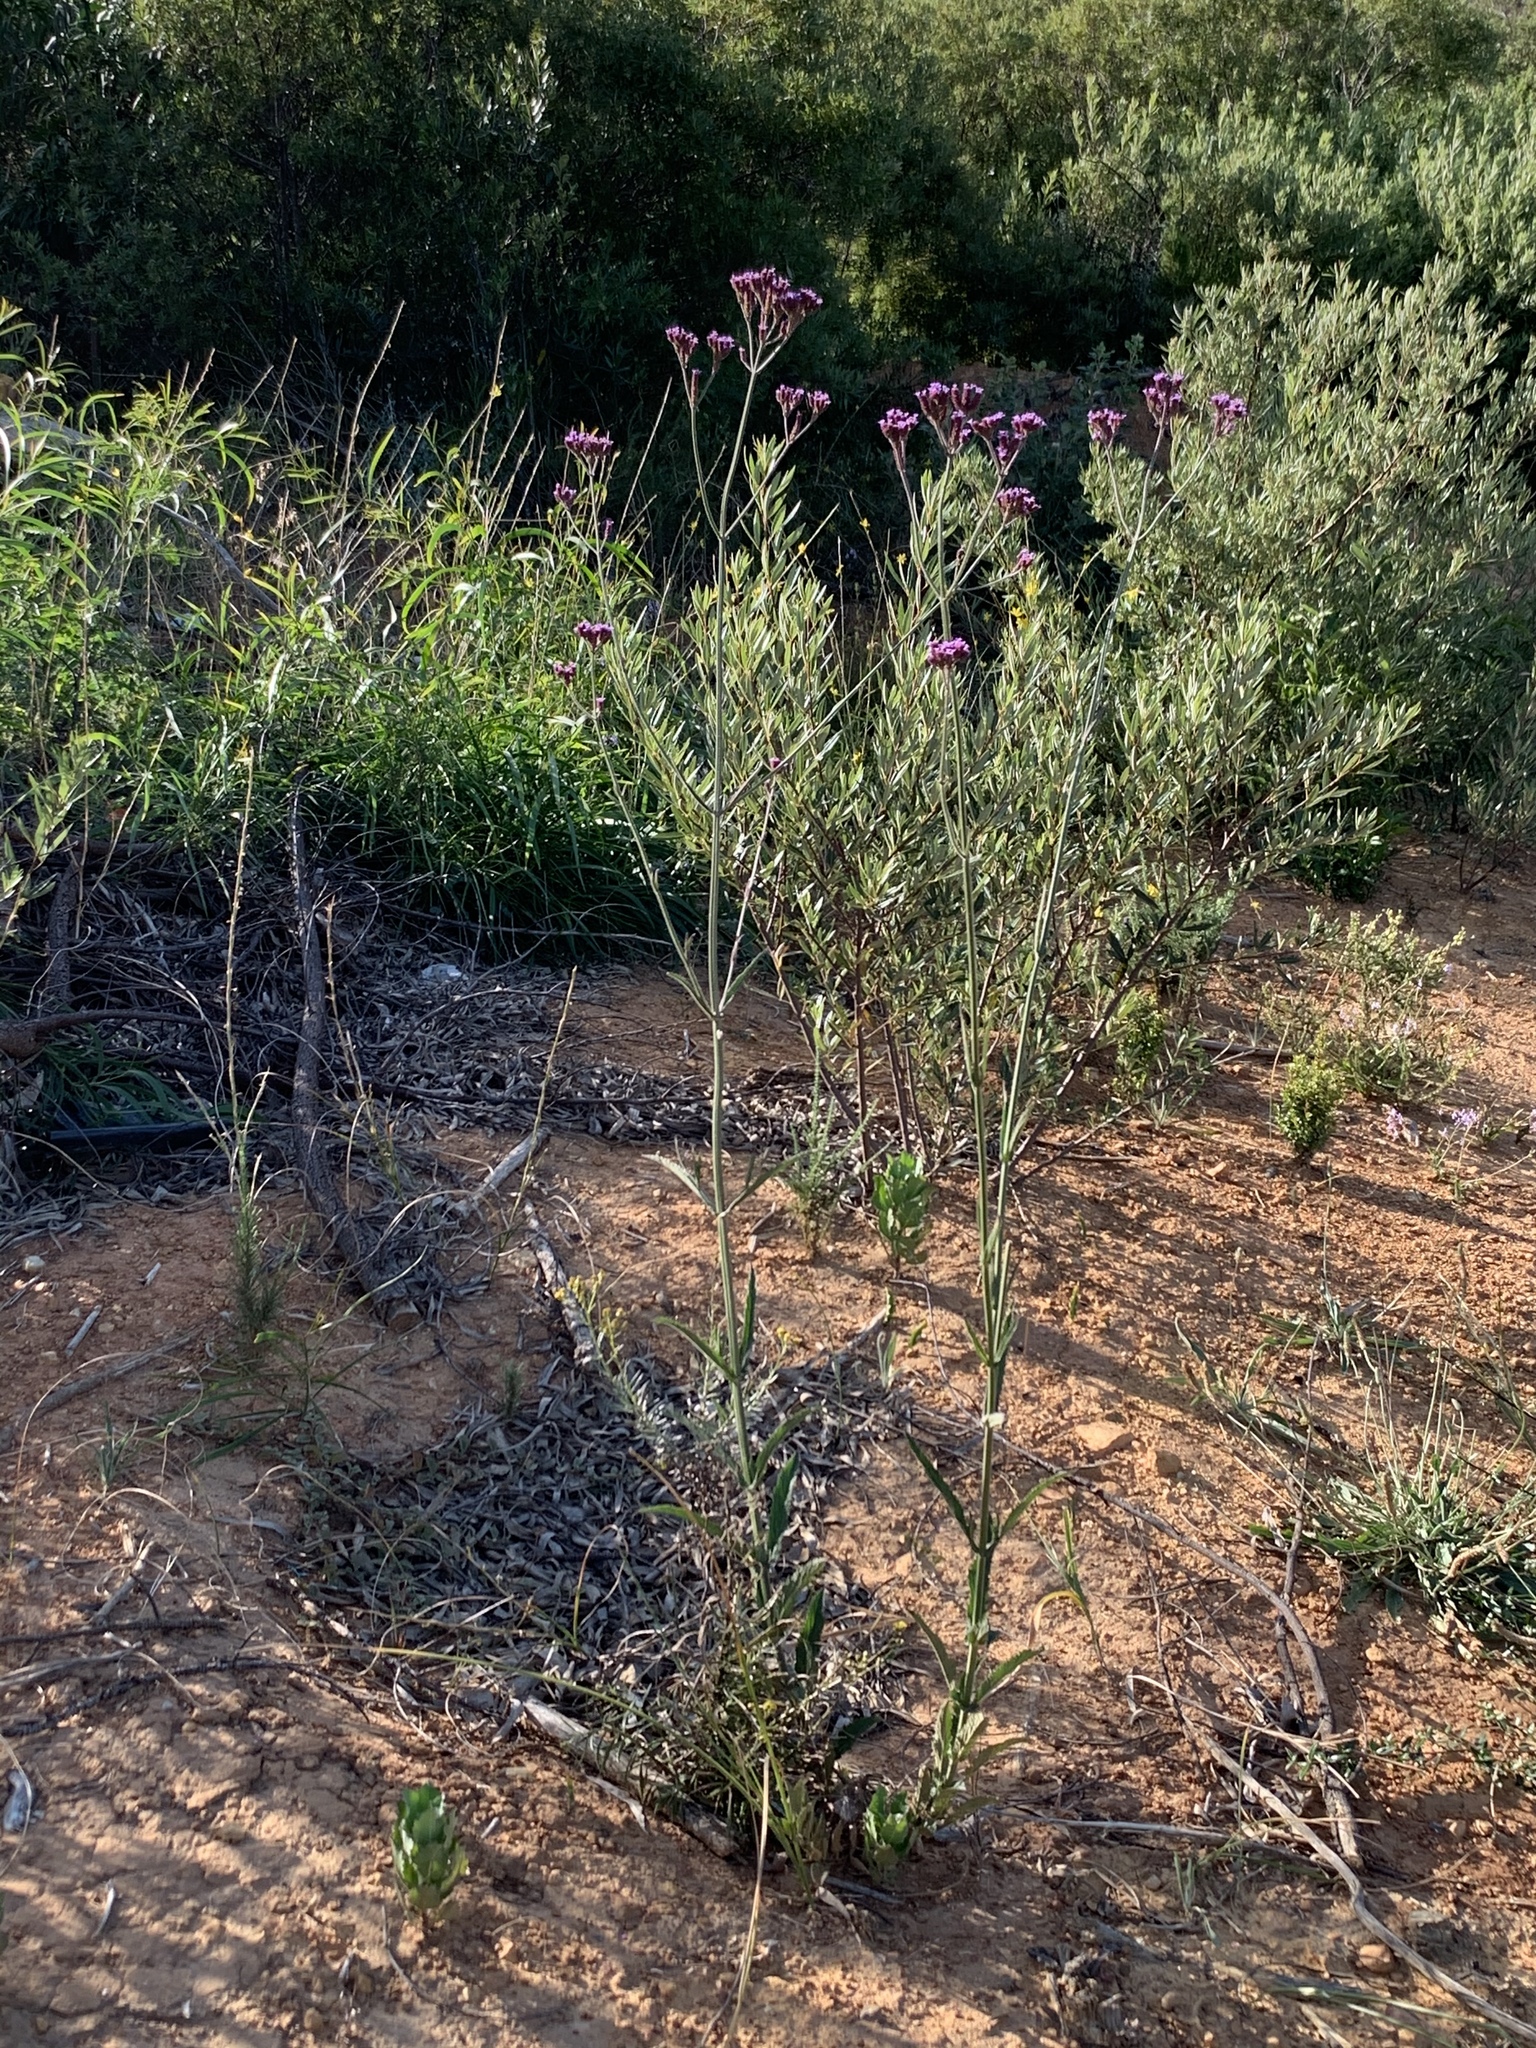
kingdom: Plantae
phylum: Tracheophyta
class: Magnoliopsida
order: Lamiales
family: Verbenaceae
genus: Verbena
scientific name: Verbena bonariensis
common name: Purpletop vervain
